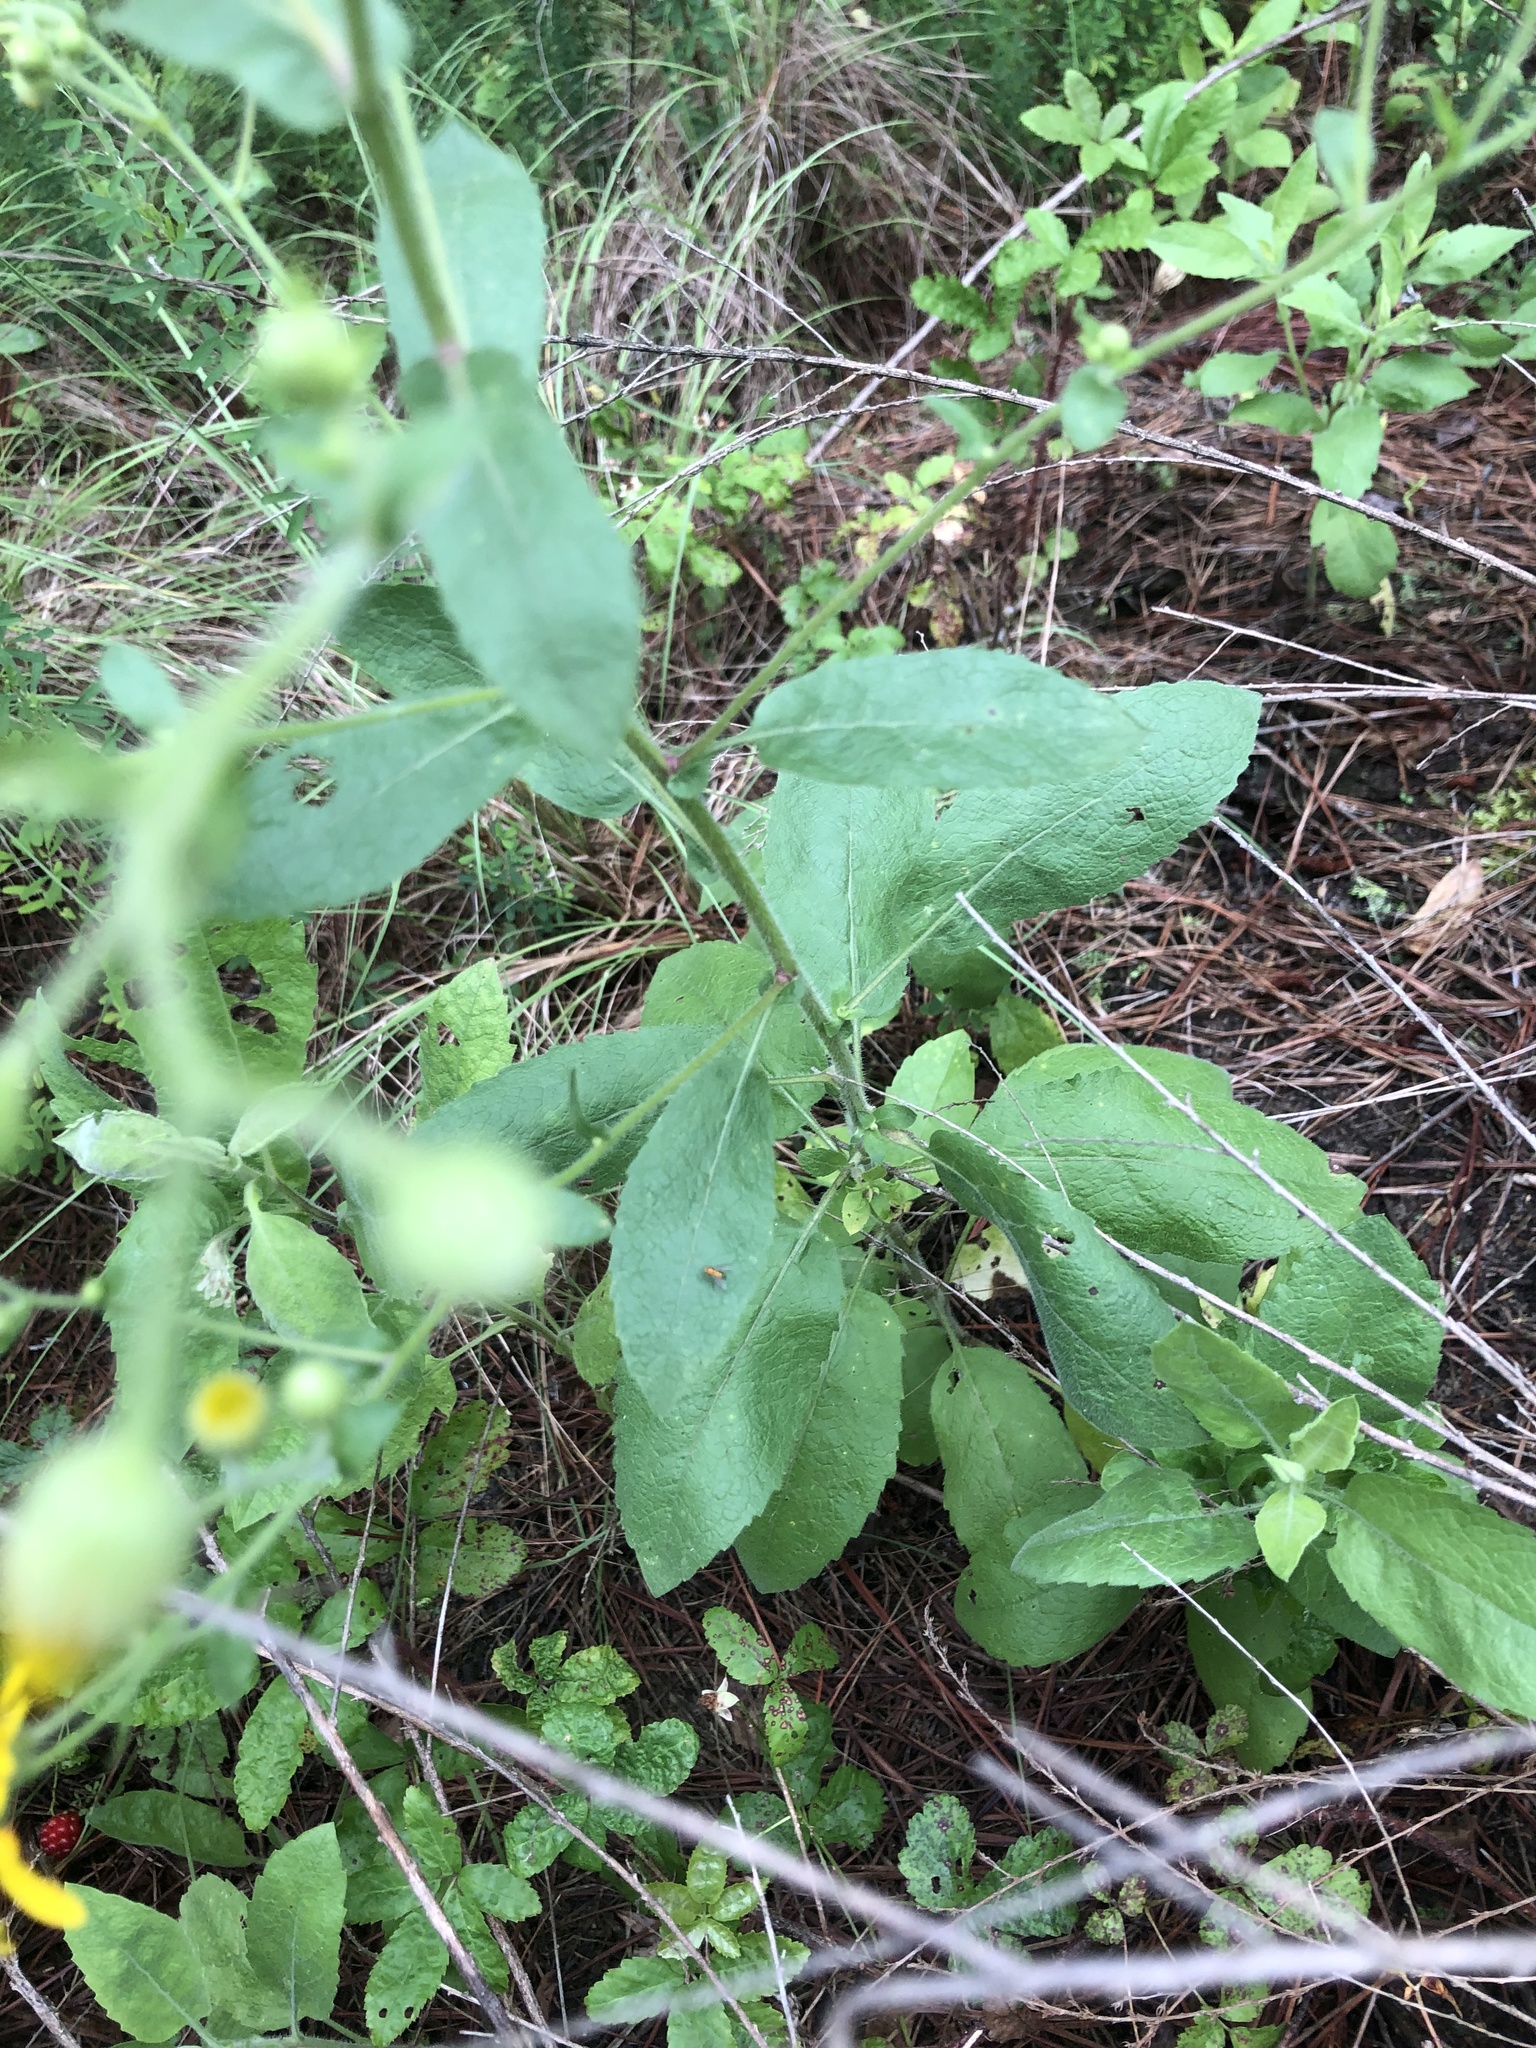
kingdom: Plantae
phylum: Tracheophyta
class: Magnoliopsida
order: Asterales
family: Asteraceae
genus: Heterotheca
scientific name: Heterotheca subaxillaris
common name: Camphorweed
